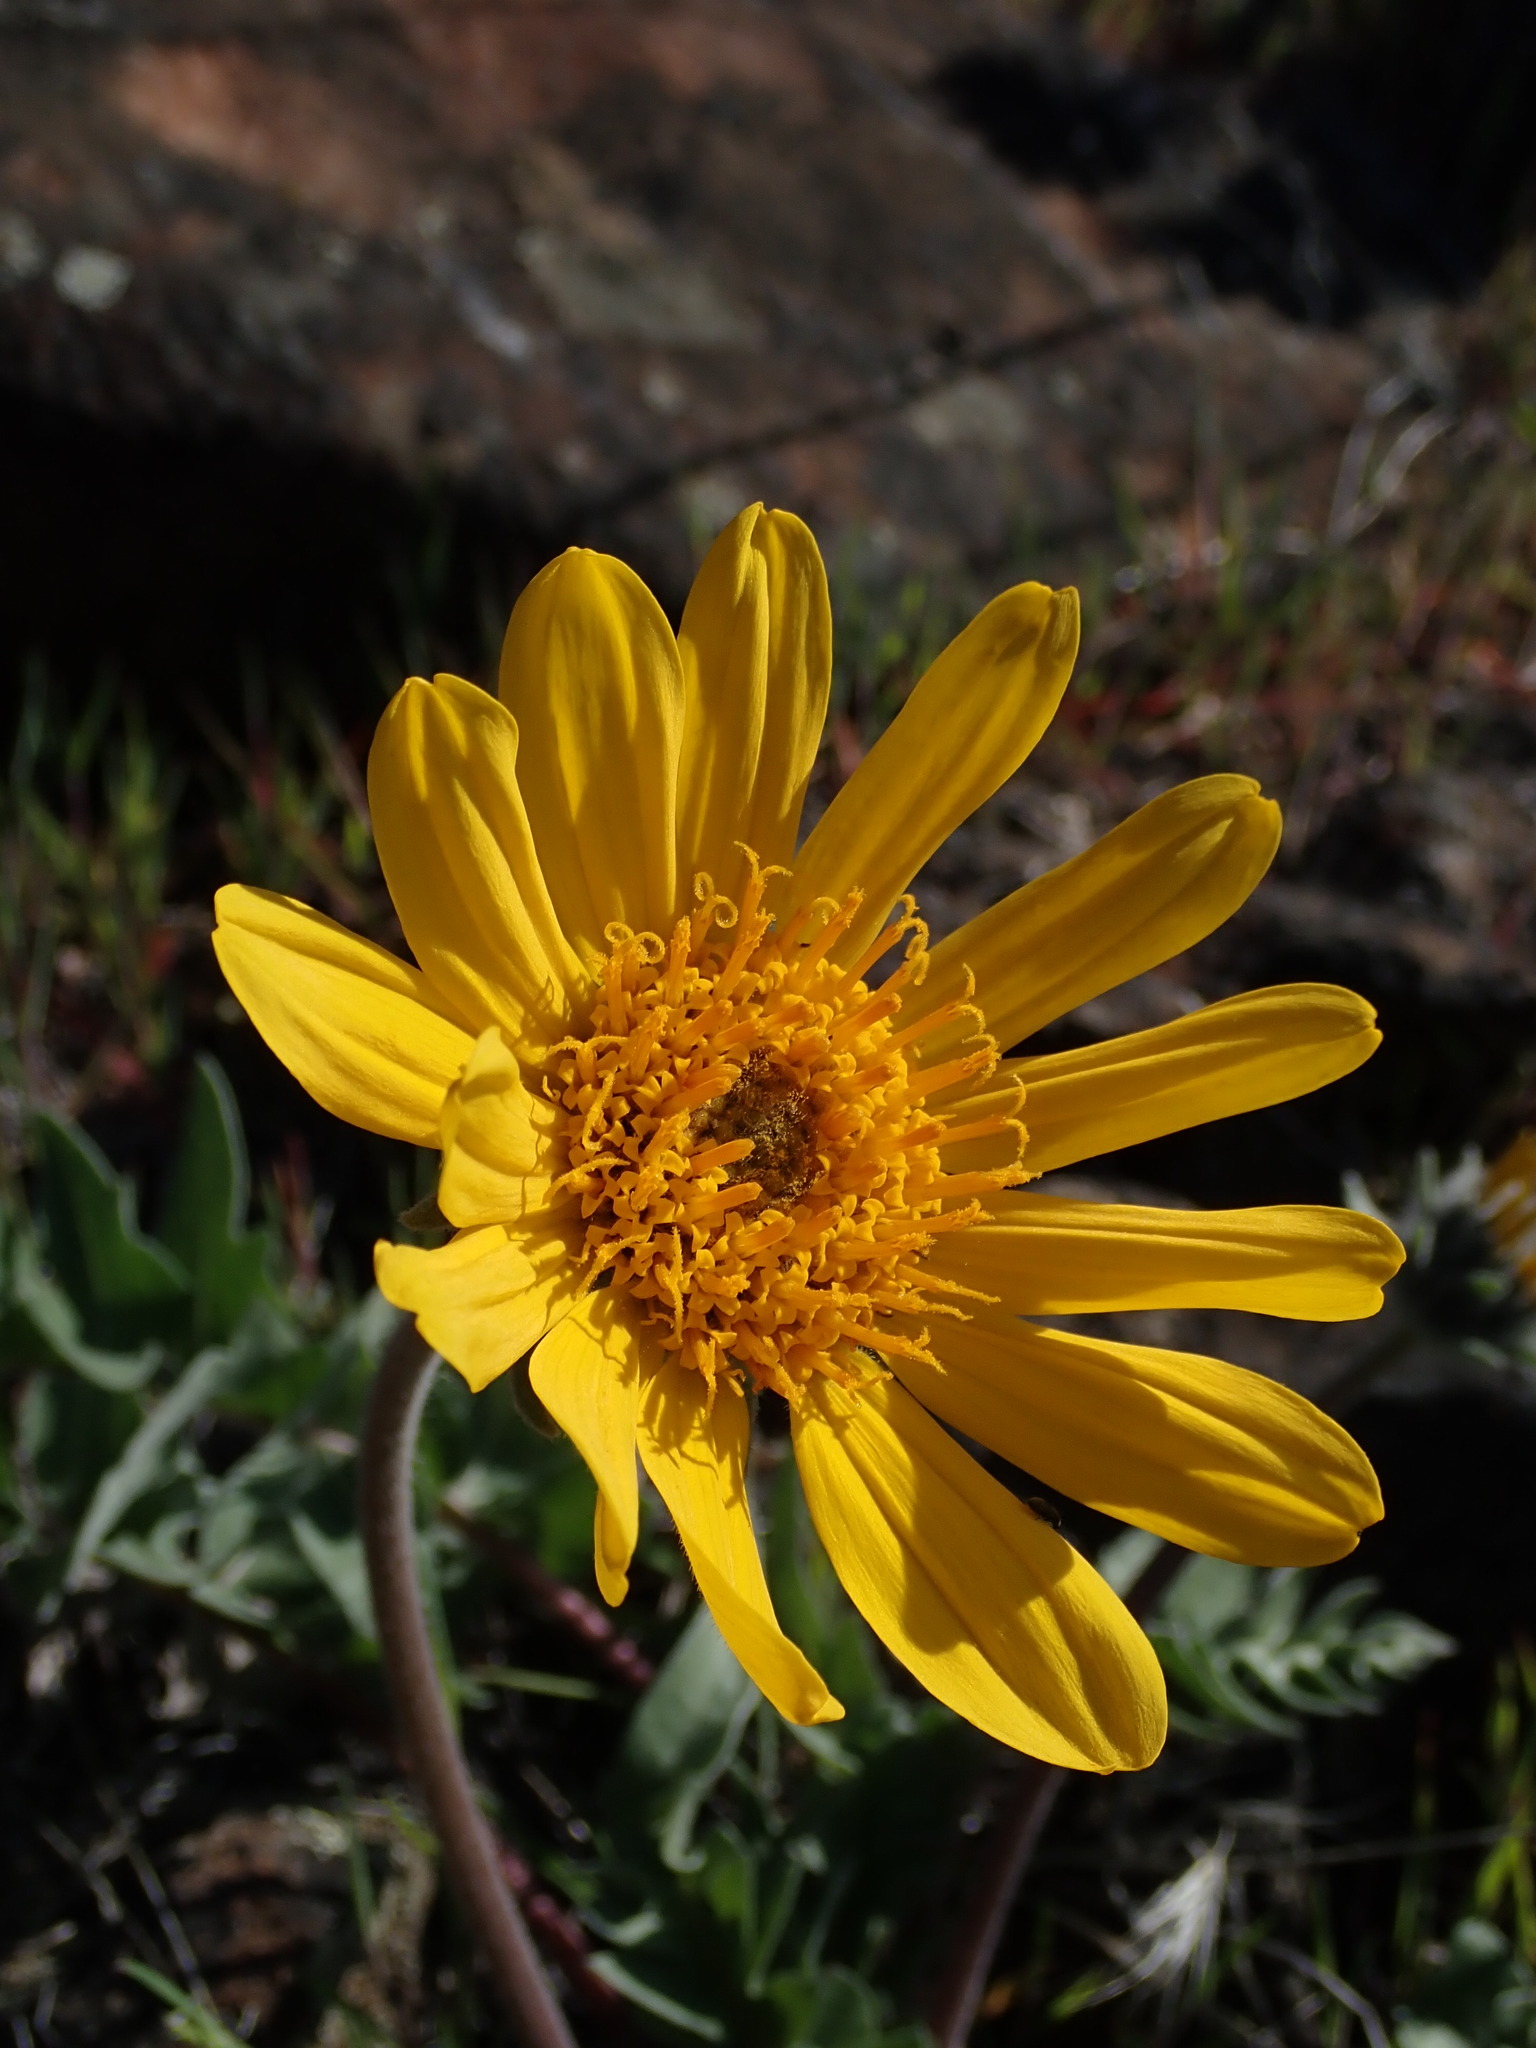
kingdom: Plantae
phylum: Tracheophyta
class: Magnoliopsida
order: Asterales
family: Asteraceae
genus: Balsamorhiza
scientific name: Balsamorhiza hookeri
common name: Hooker's balsamroot
